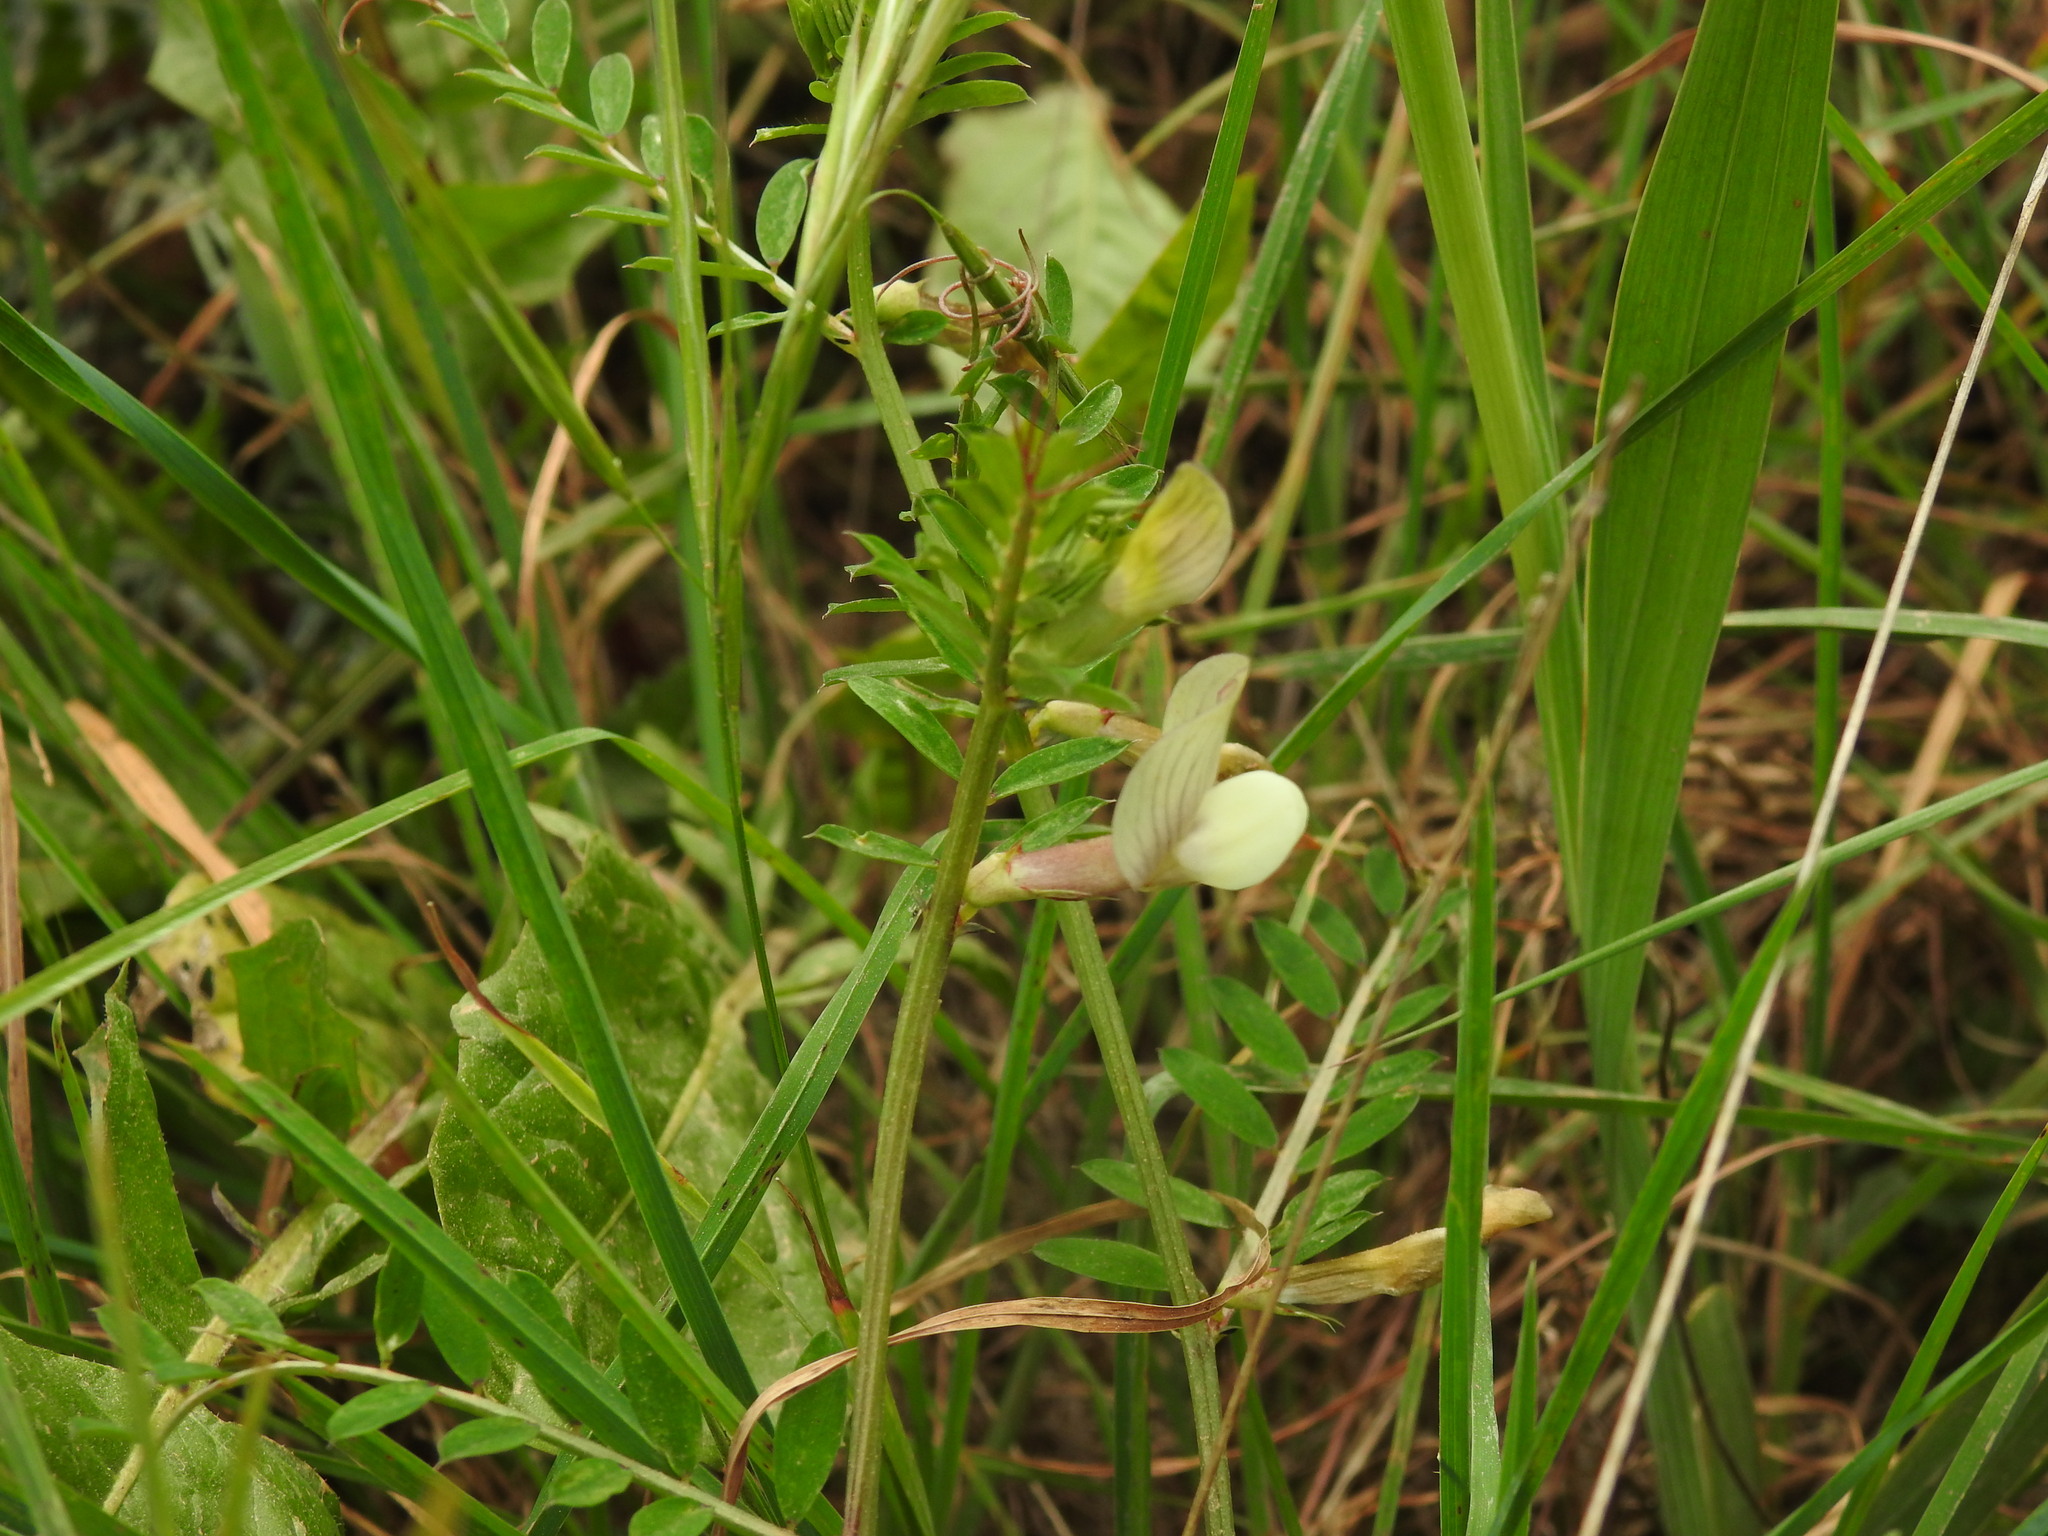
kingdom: Plantae
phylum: Tracheophyta
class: Magnoliopsida
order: Fabales
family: Fabaceae
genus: Vicia
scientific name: Vicia lutea
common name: Smooth yellow vetch
